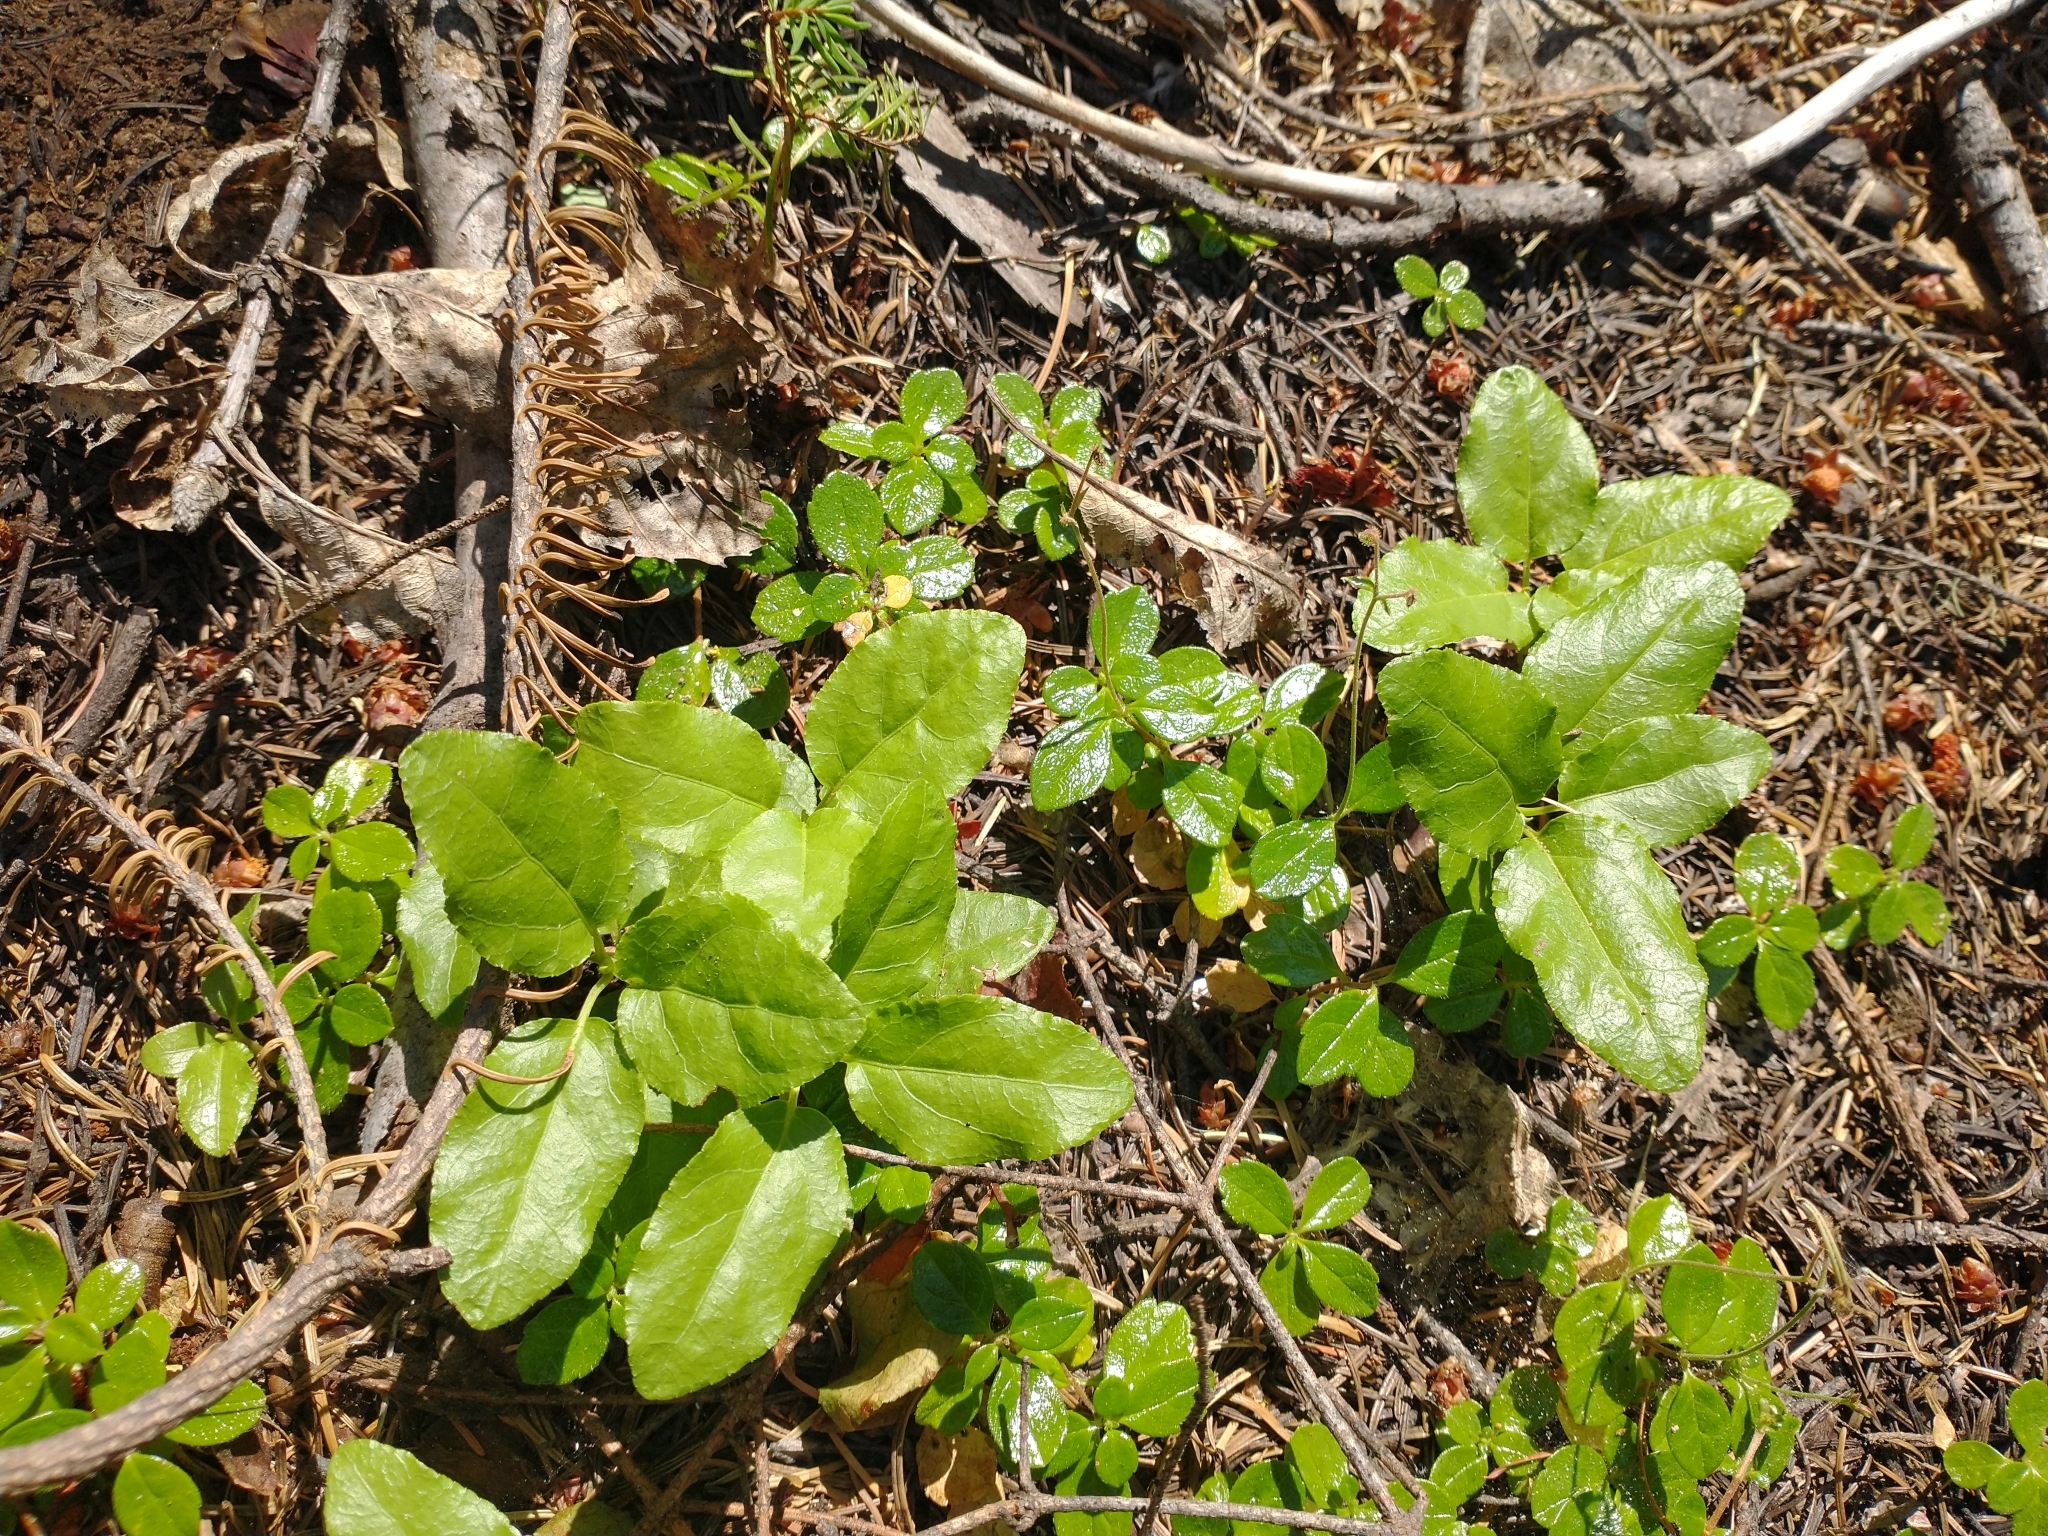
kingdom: Plantae
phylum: Tracheophyta
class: Magnoliopsida
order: Ericales
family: Ericaceae
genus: Orthilia
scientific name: Orthilia secunda
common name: One-sided orthilia
